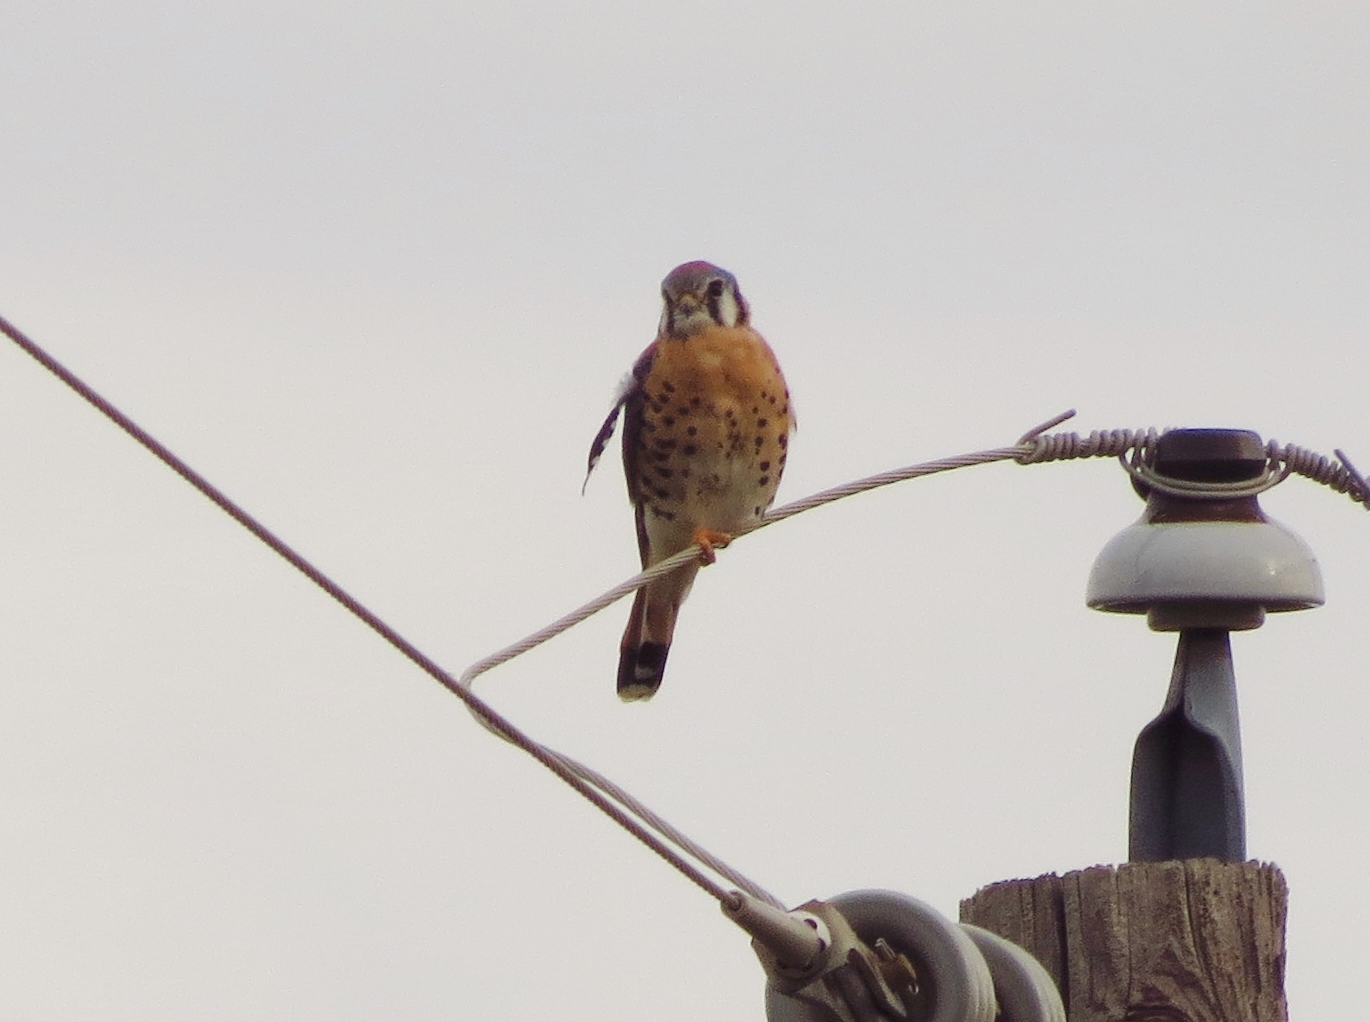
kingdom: Animalia
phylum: Chordata
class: Aves
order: Falconiformes
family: Falconidae
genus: Falco
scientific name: Falco sparverius
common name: American kestrel
